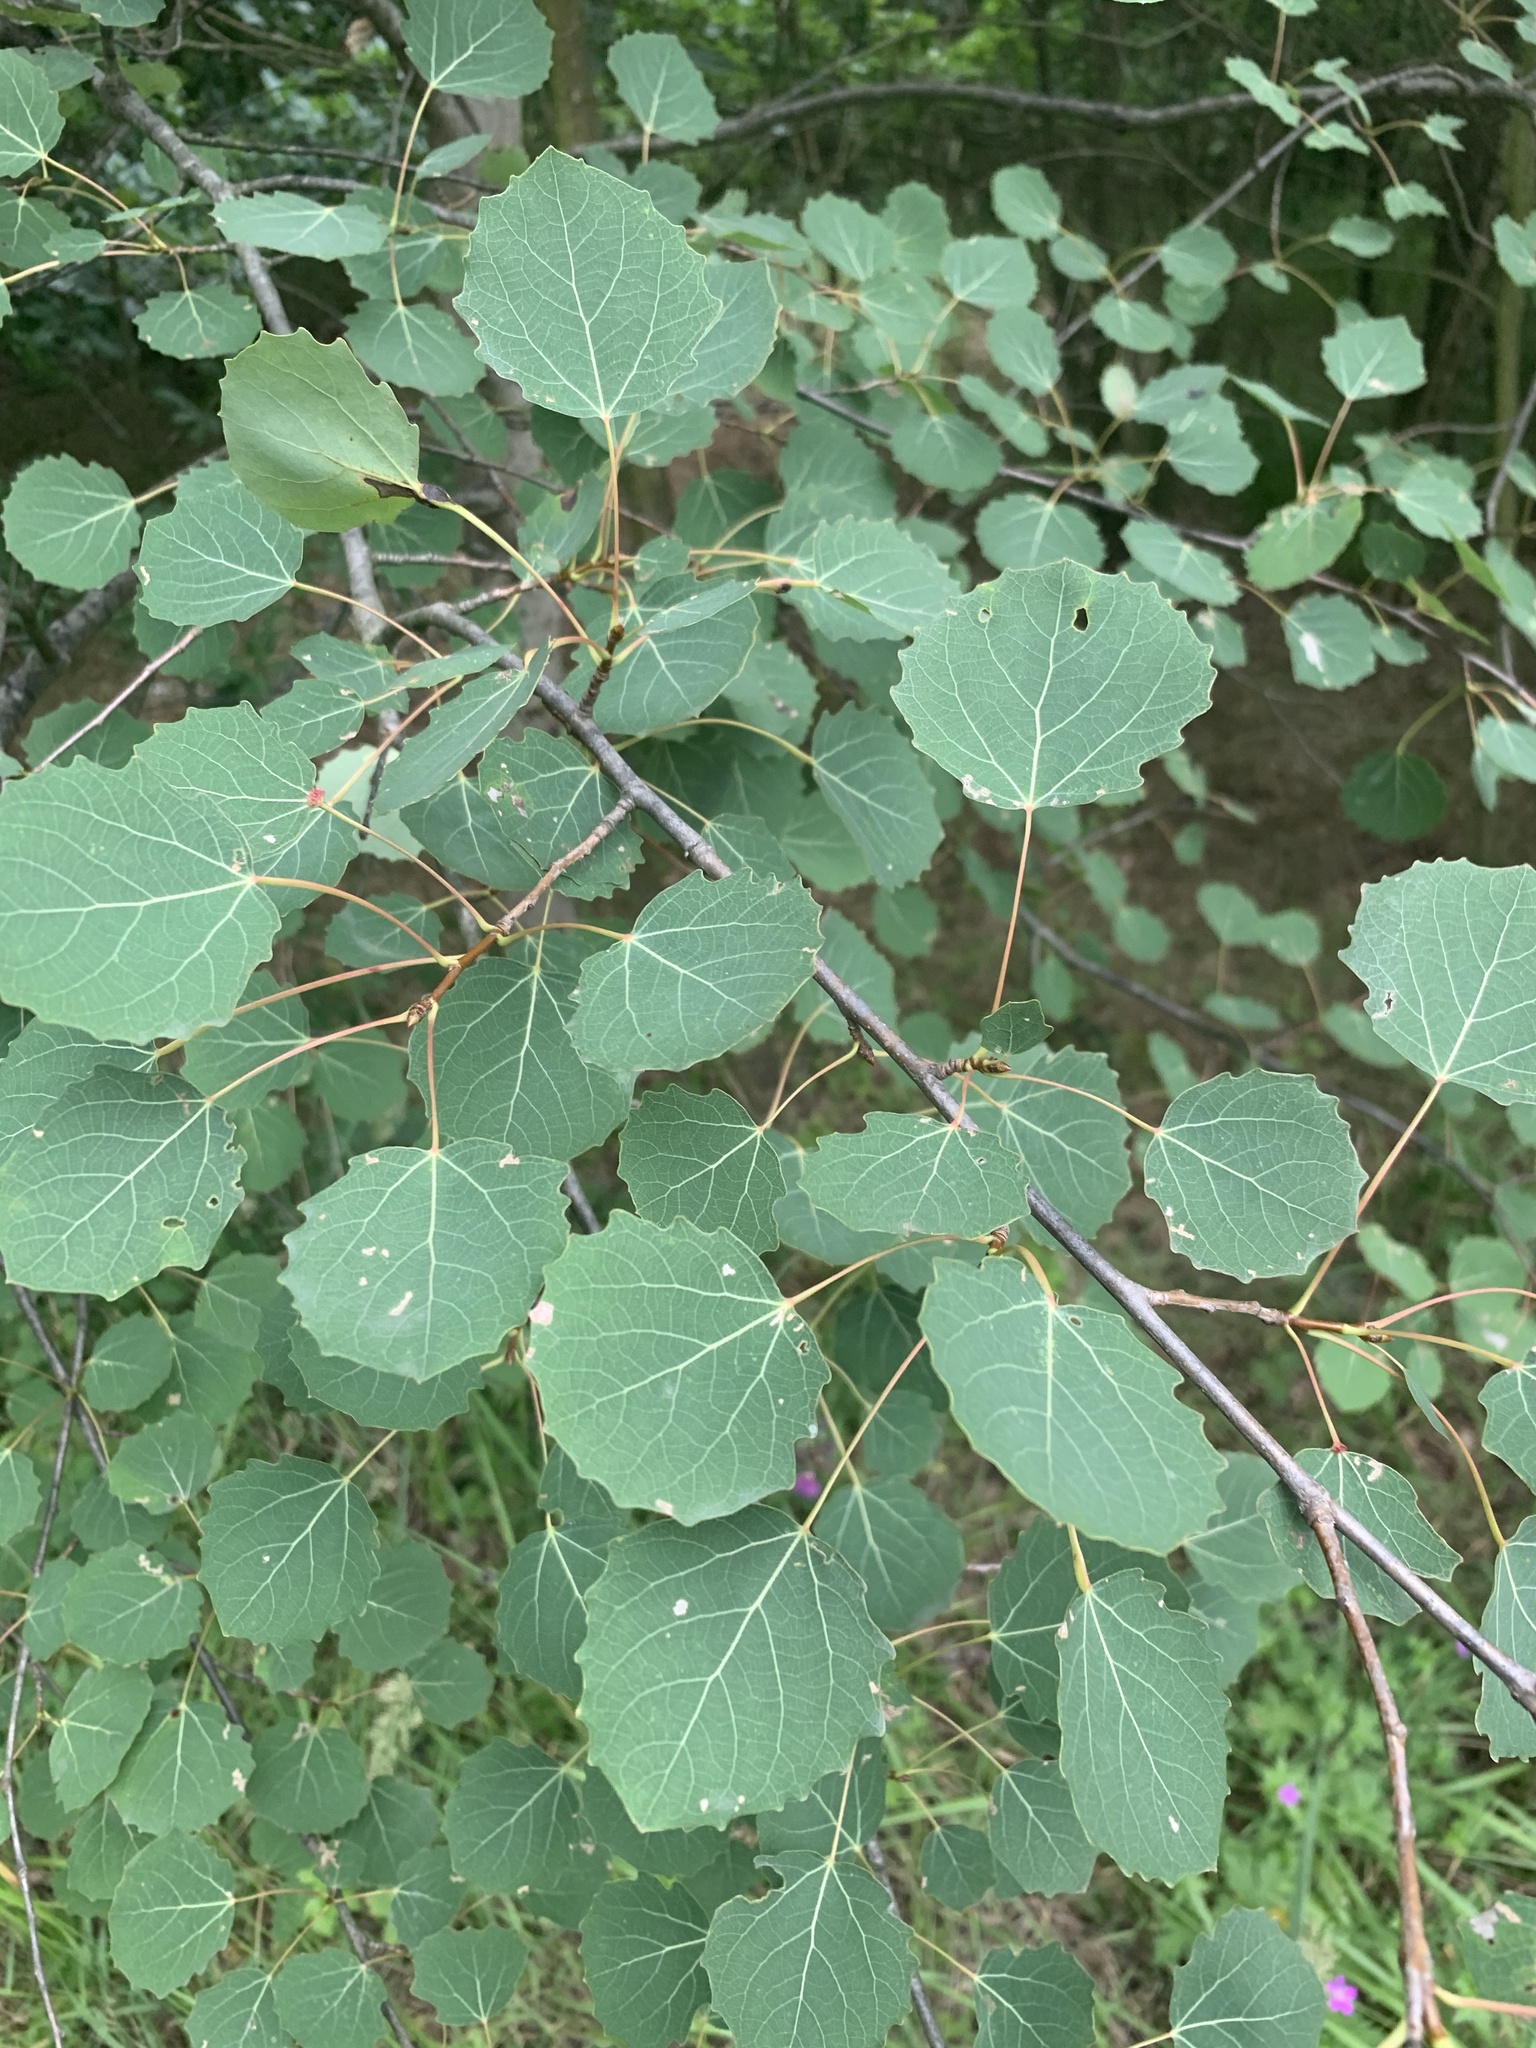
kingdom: Plantae
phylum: Tracheophyta
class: Magnoliopsida
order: Malpighiales
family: Salicaceae
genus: Populus
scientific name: Populus tremula
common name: European aspen
